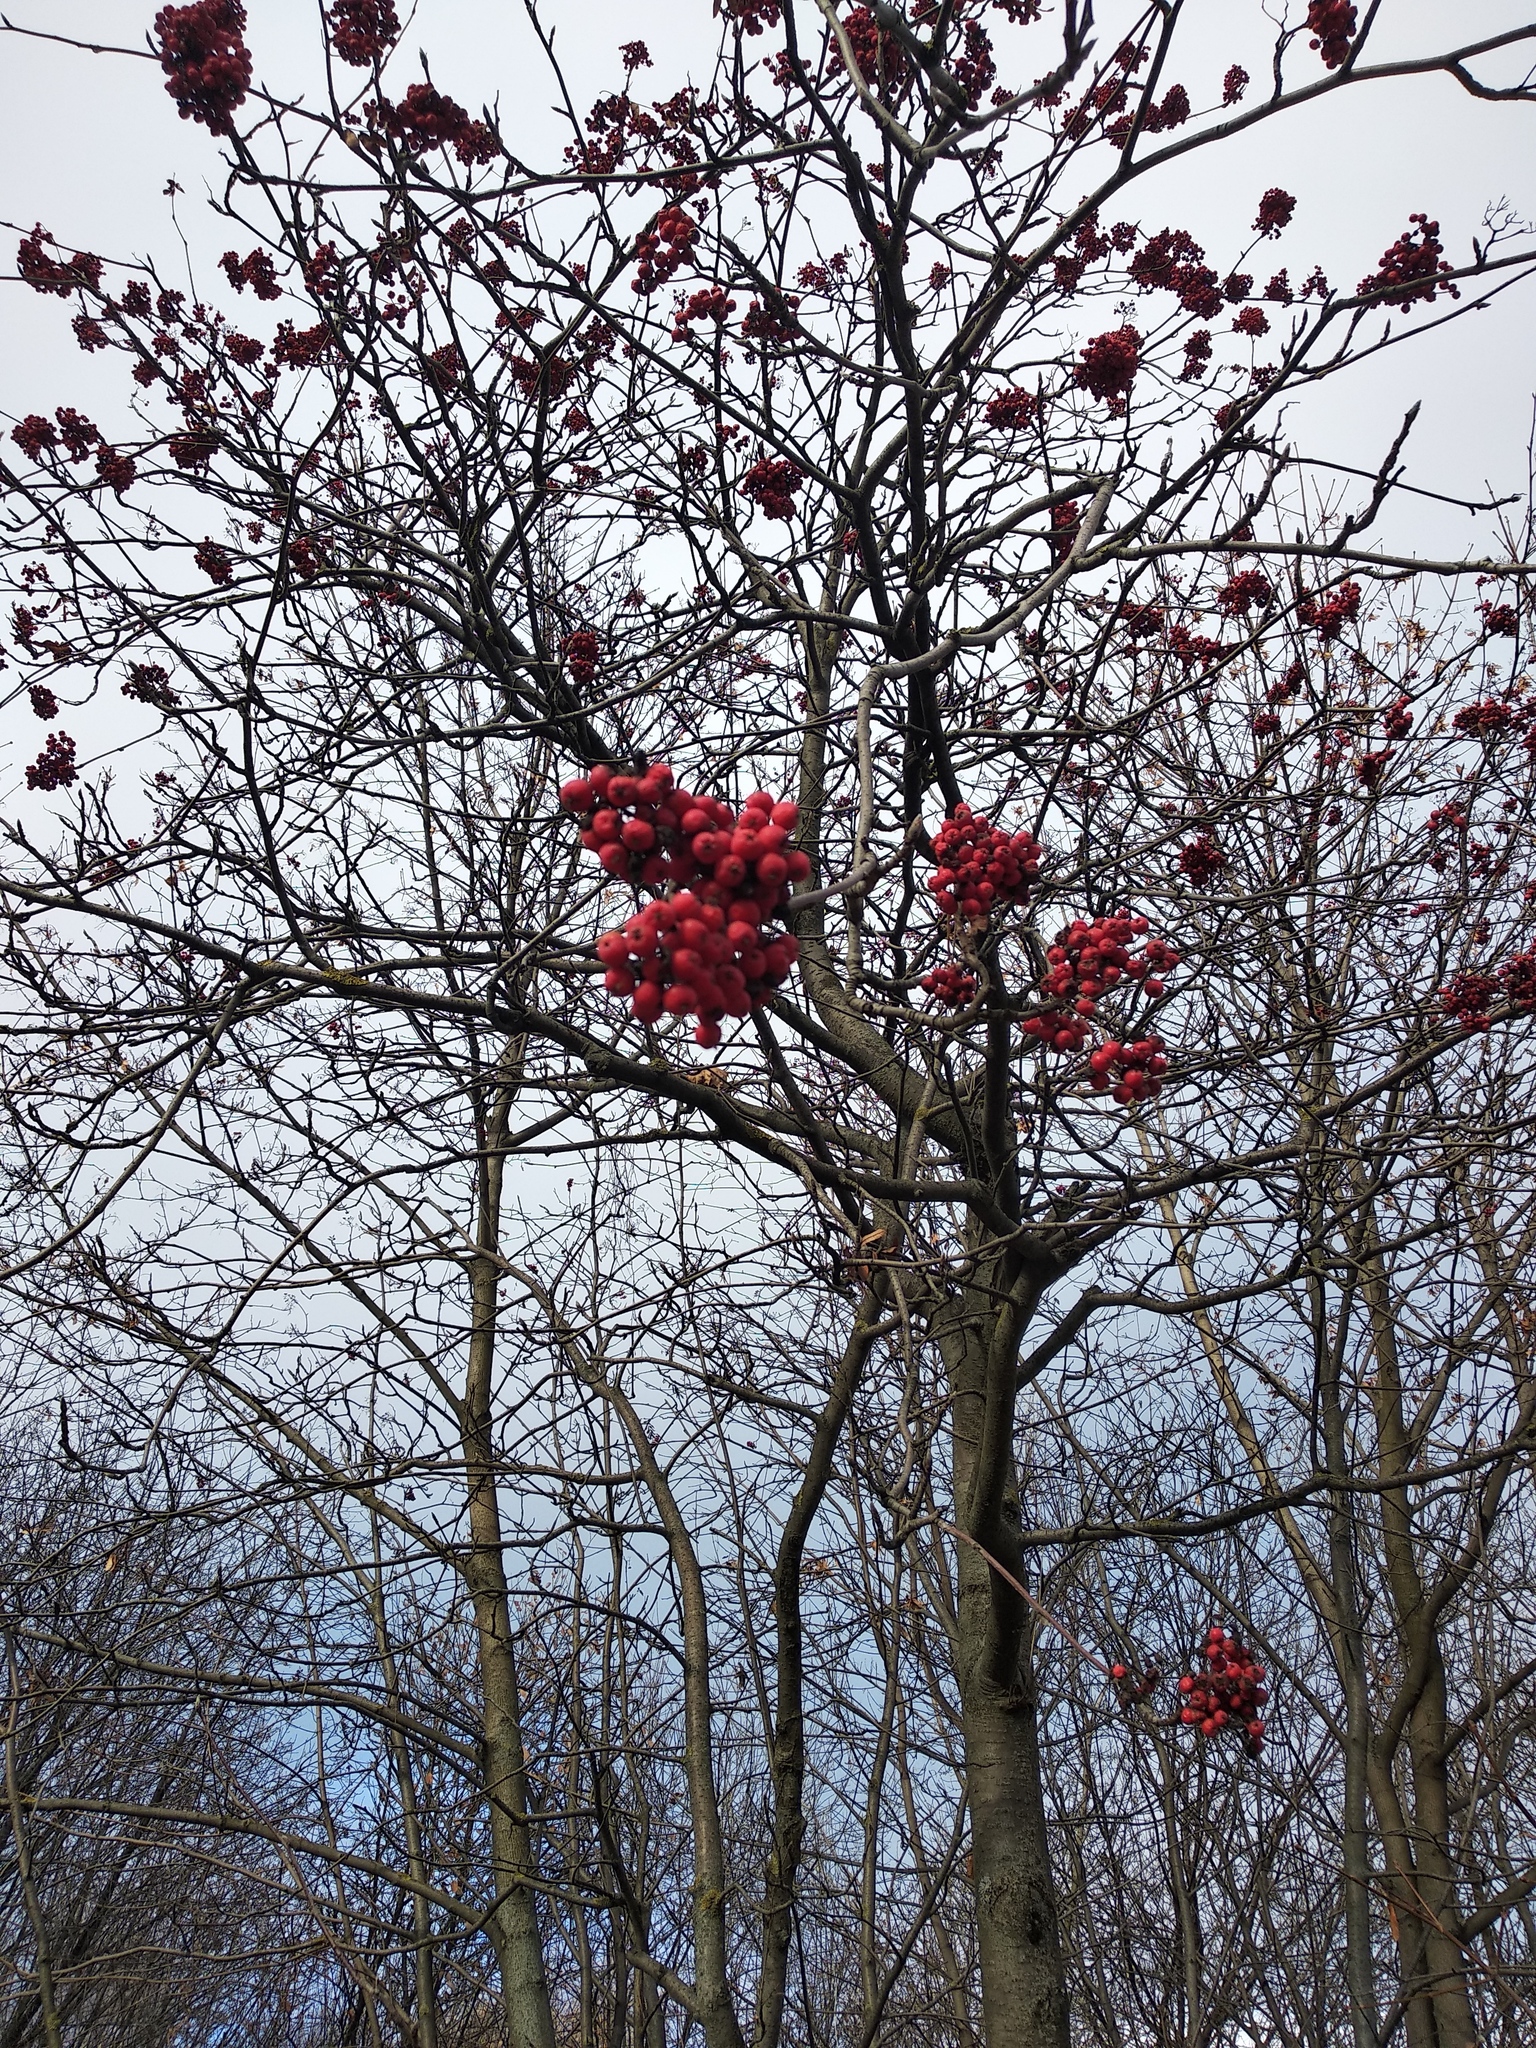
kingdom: Plantae
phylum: Tracheophyta
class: Magnoliopsida
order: Rosales
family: Rosaceae
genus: Sorbus
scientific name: Sorbus aucuparia
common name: Rowan
